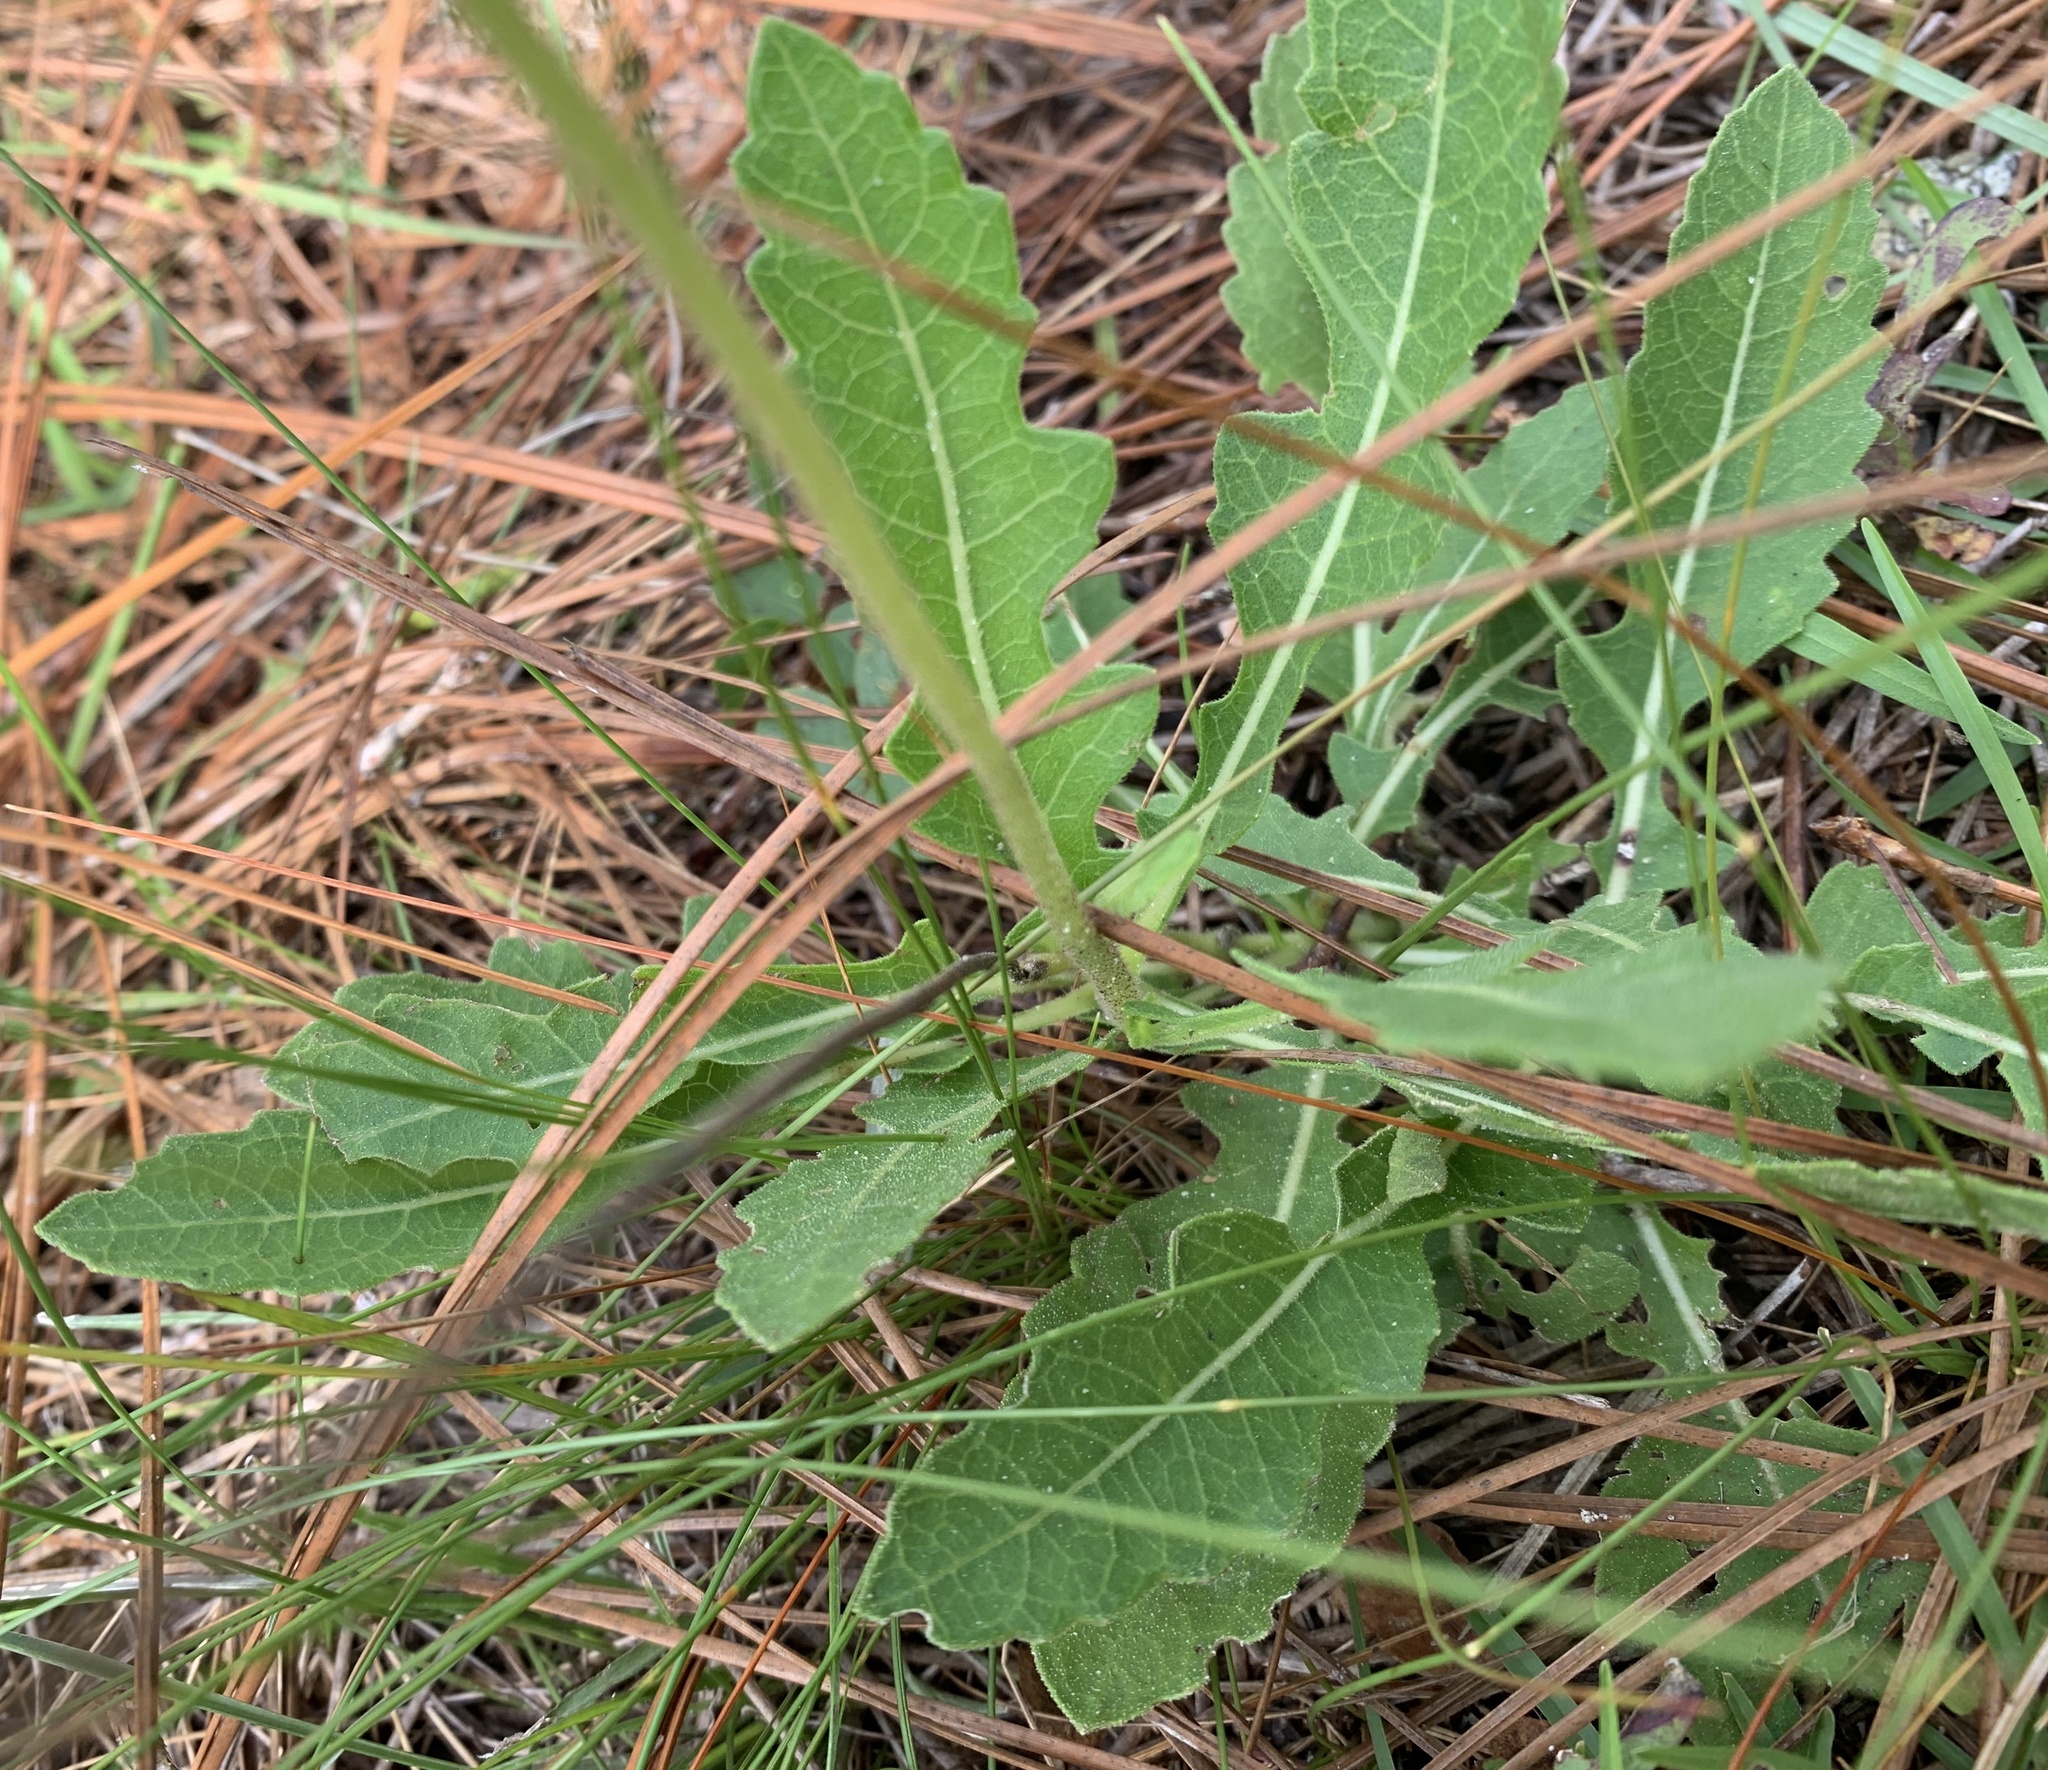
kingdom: Plantae
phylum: Tracheophyta
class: Magnoliopsida
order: Asterales
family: Asteraceae
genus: Berlandiera
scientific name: Berlandiera subacaulis
